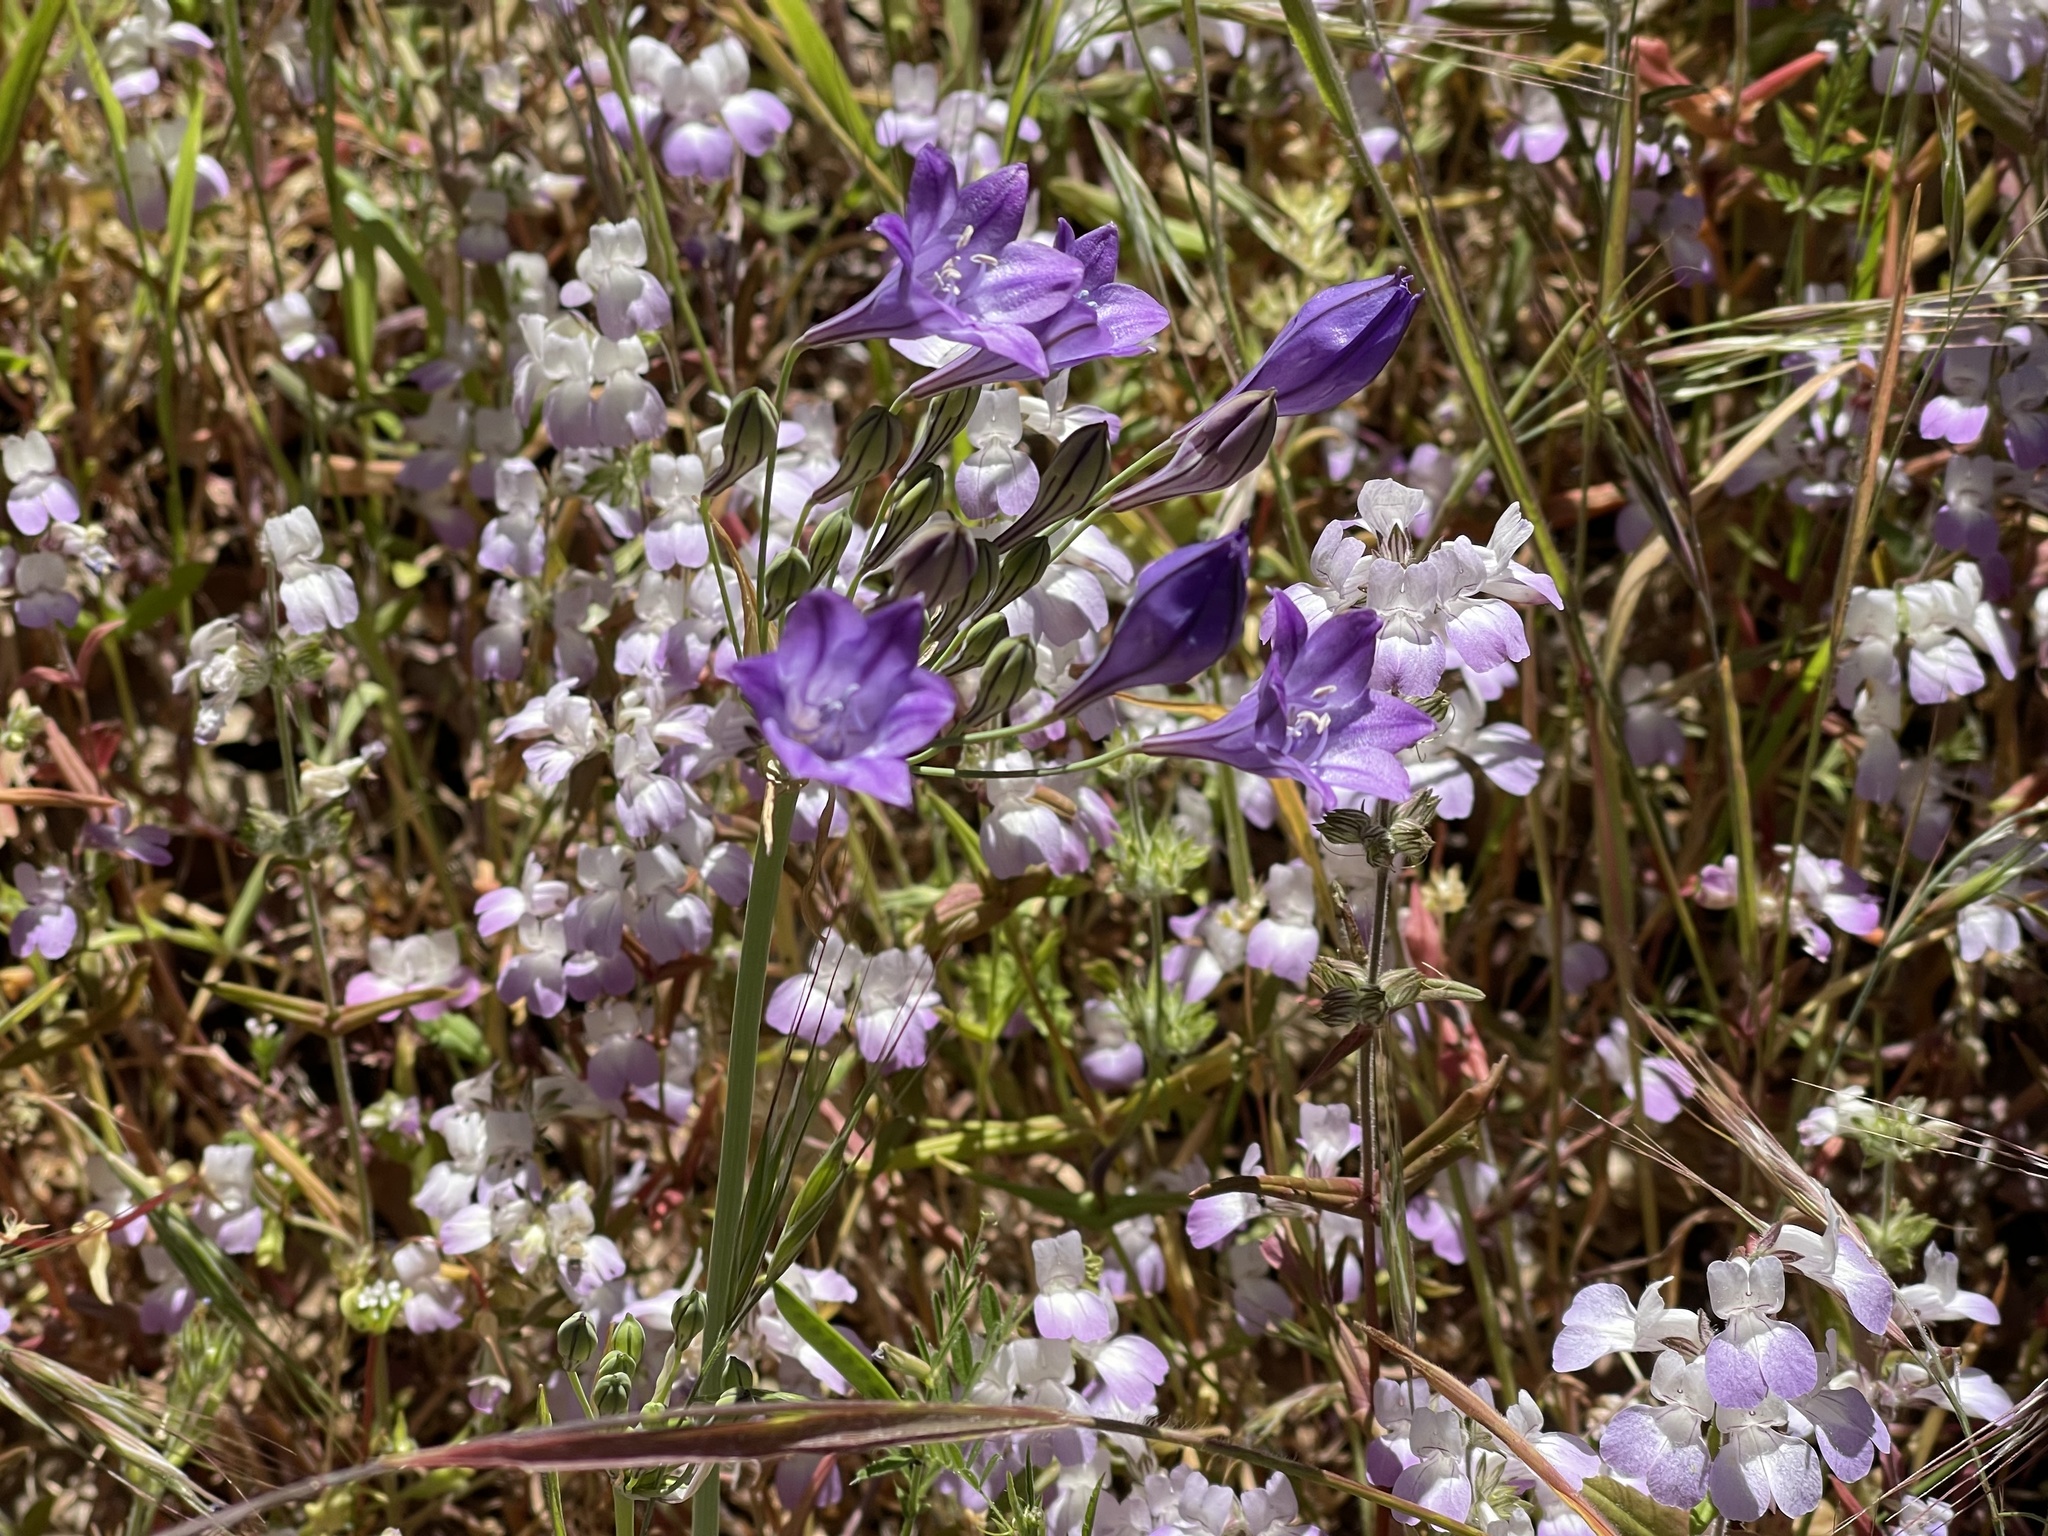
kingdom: Plantae
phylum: Tracheophyta
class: Liliopsida
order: Asparagales
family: Asparagaceae
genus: Triteleia
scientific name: Triteleia laxa
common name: Triplet-lily
